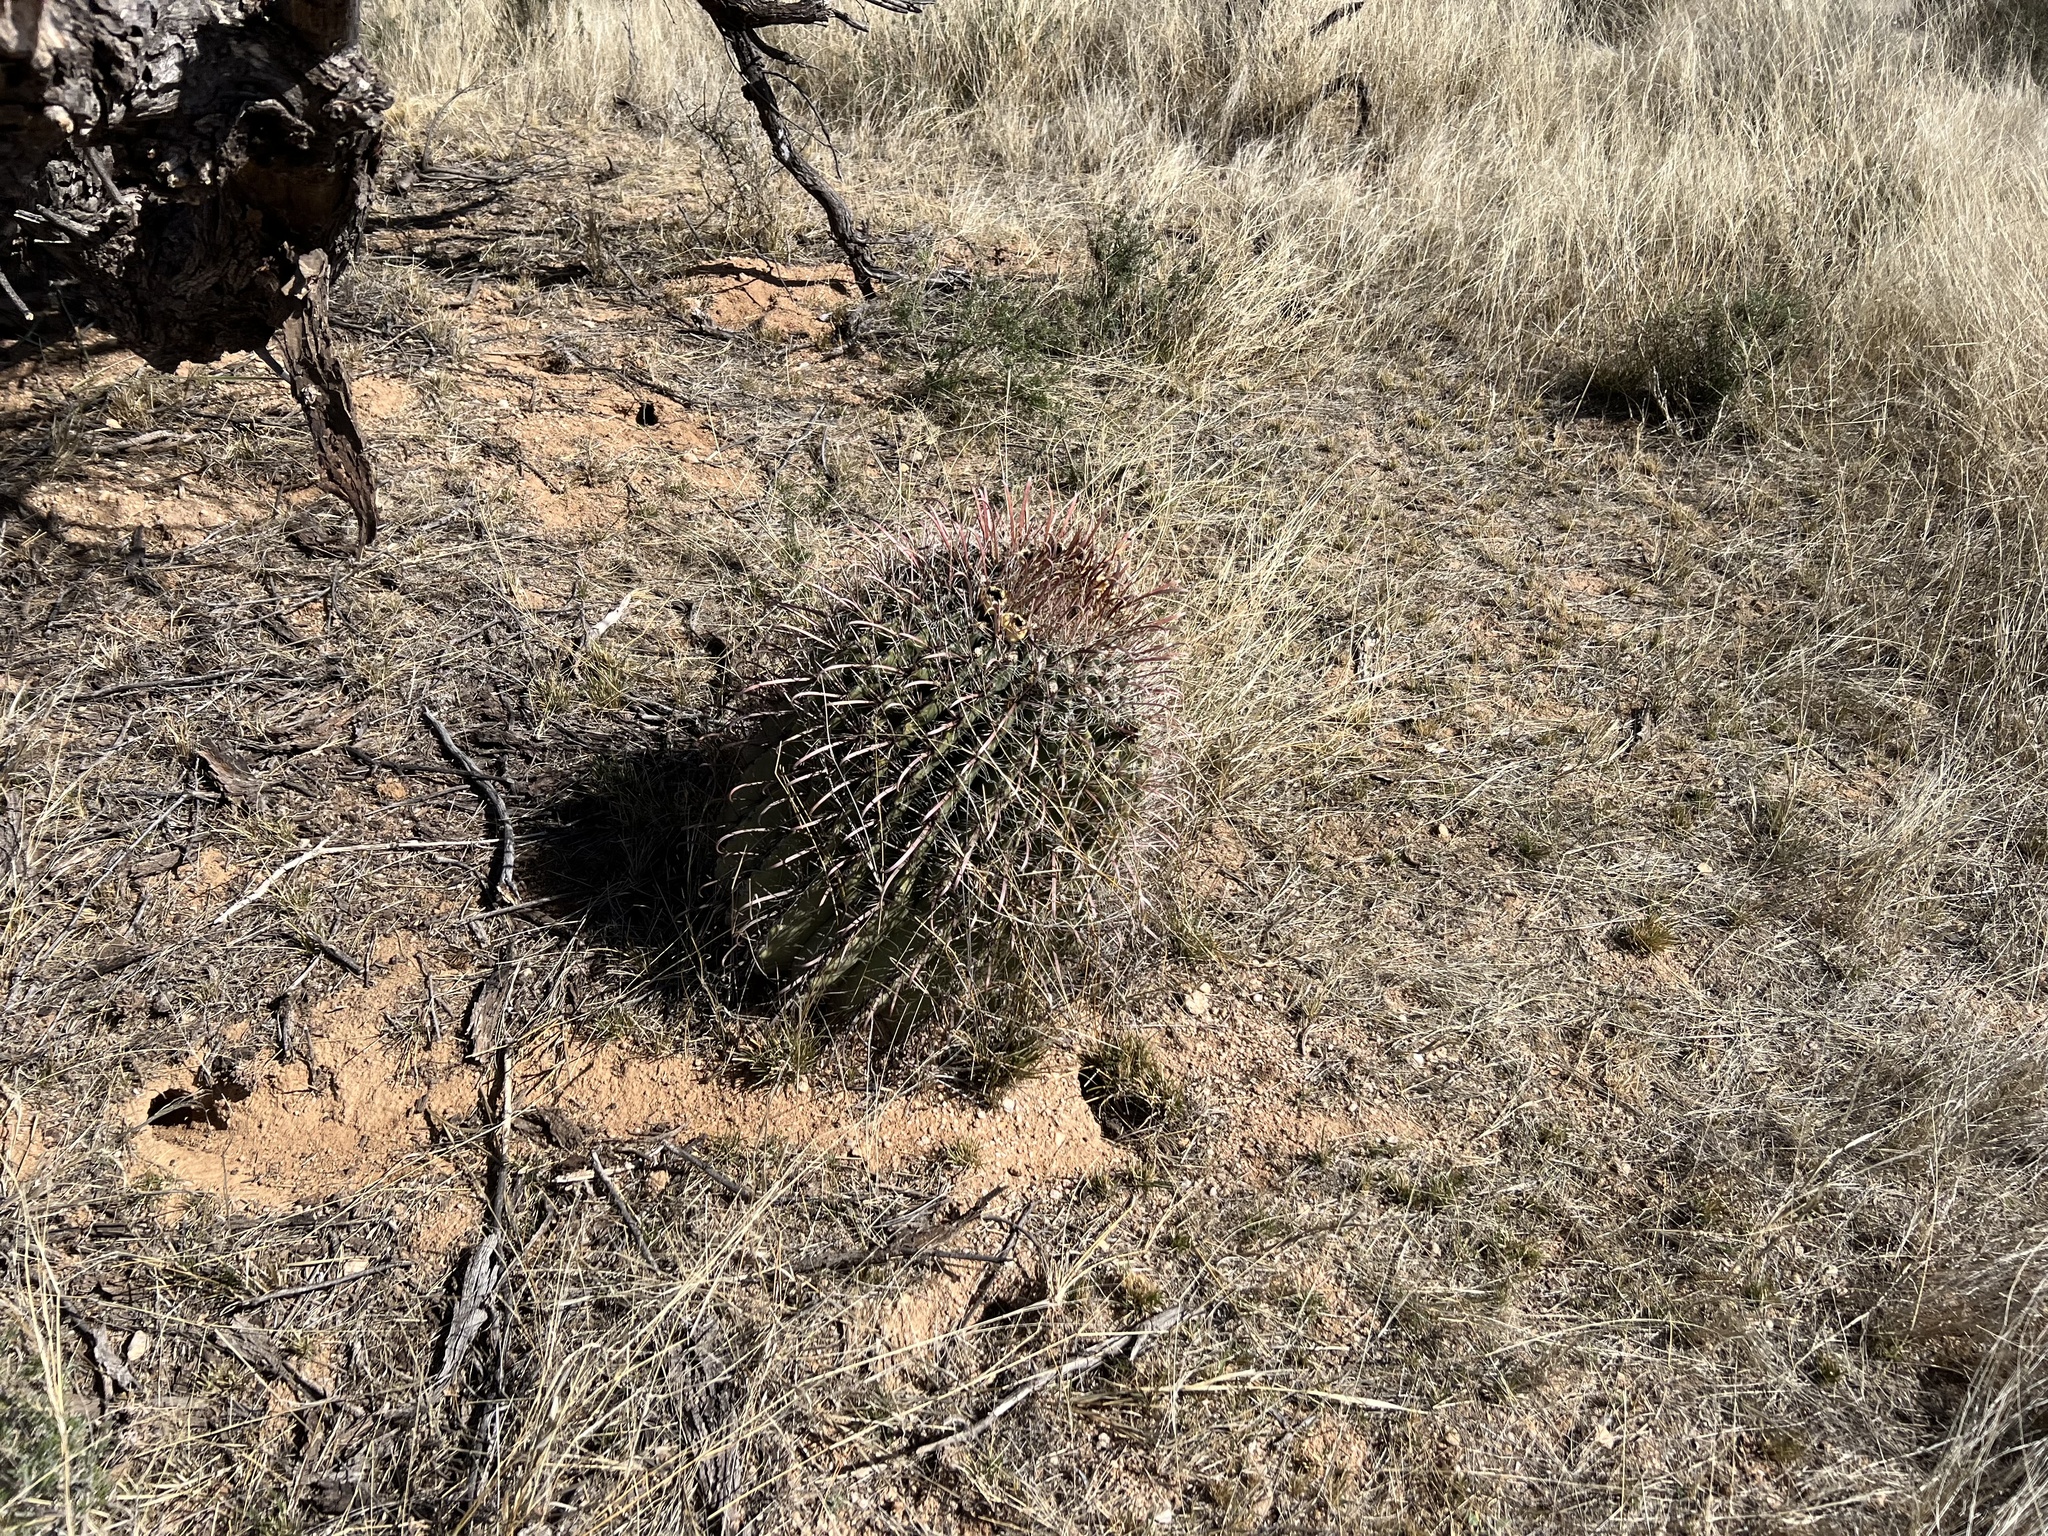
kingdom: Plantae
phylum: Tracheophyta
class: Magnoliopsida
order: Caryophyllales
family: Cactaceae
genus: Ferocactus
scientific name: Ferocactus wislizeni
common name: Candy barrel cactus
